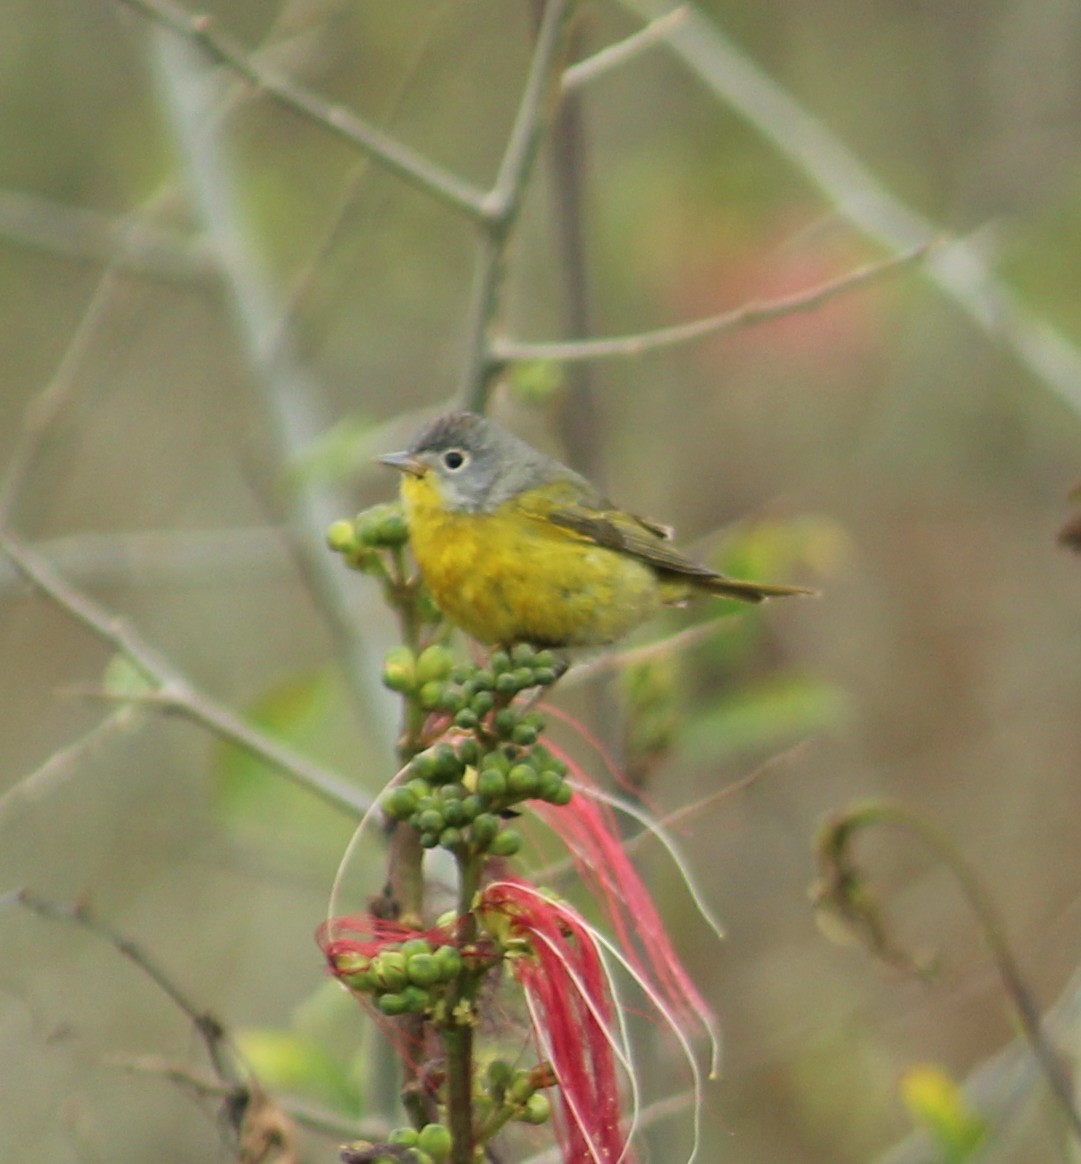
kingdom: Animalia
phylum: Chordata
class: Aves
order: Passeriformes
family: Parulidae
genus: Leiothlypis
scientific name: Leiothlypis ruficapilla
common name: Nashville warbler
